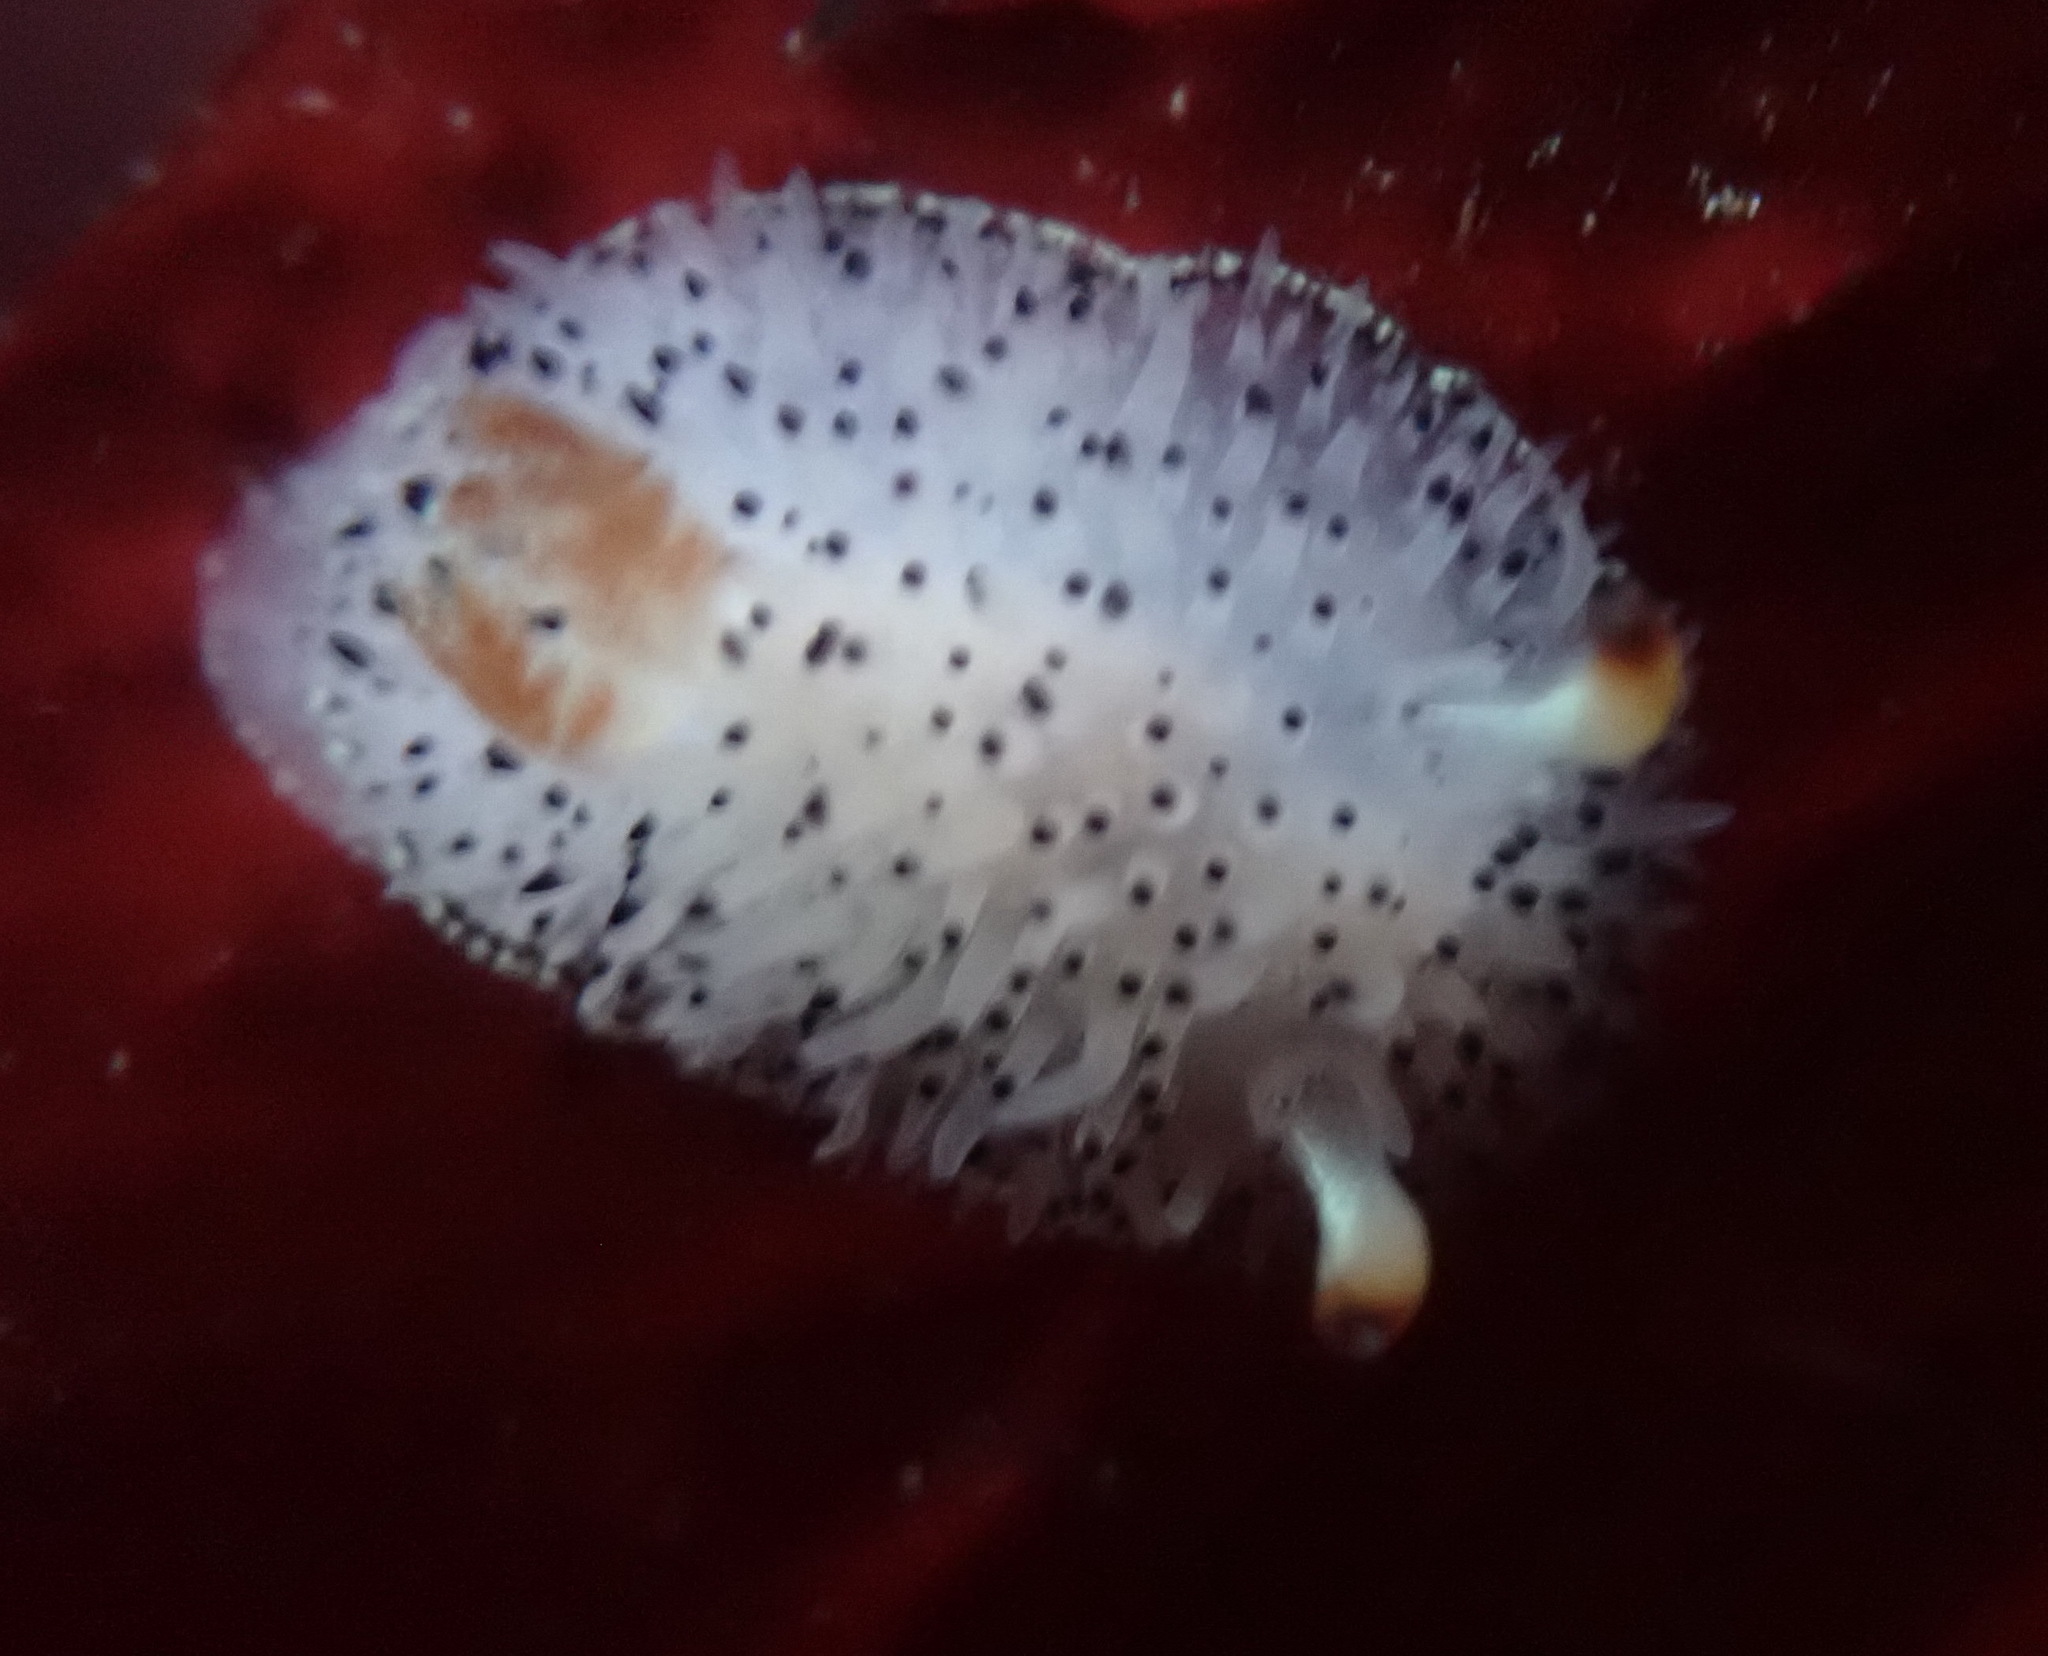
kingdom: Animalia
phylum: Mollusca
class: Gastropoda
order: Nudibranchia
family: Onchidorididae
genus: Acanthodoris
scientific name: Acanthodoris rhodoceras
